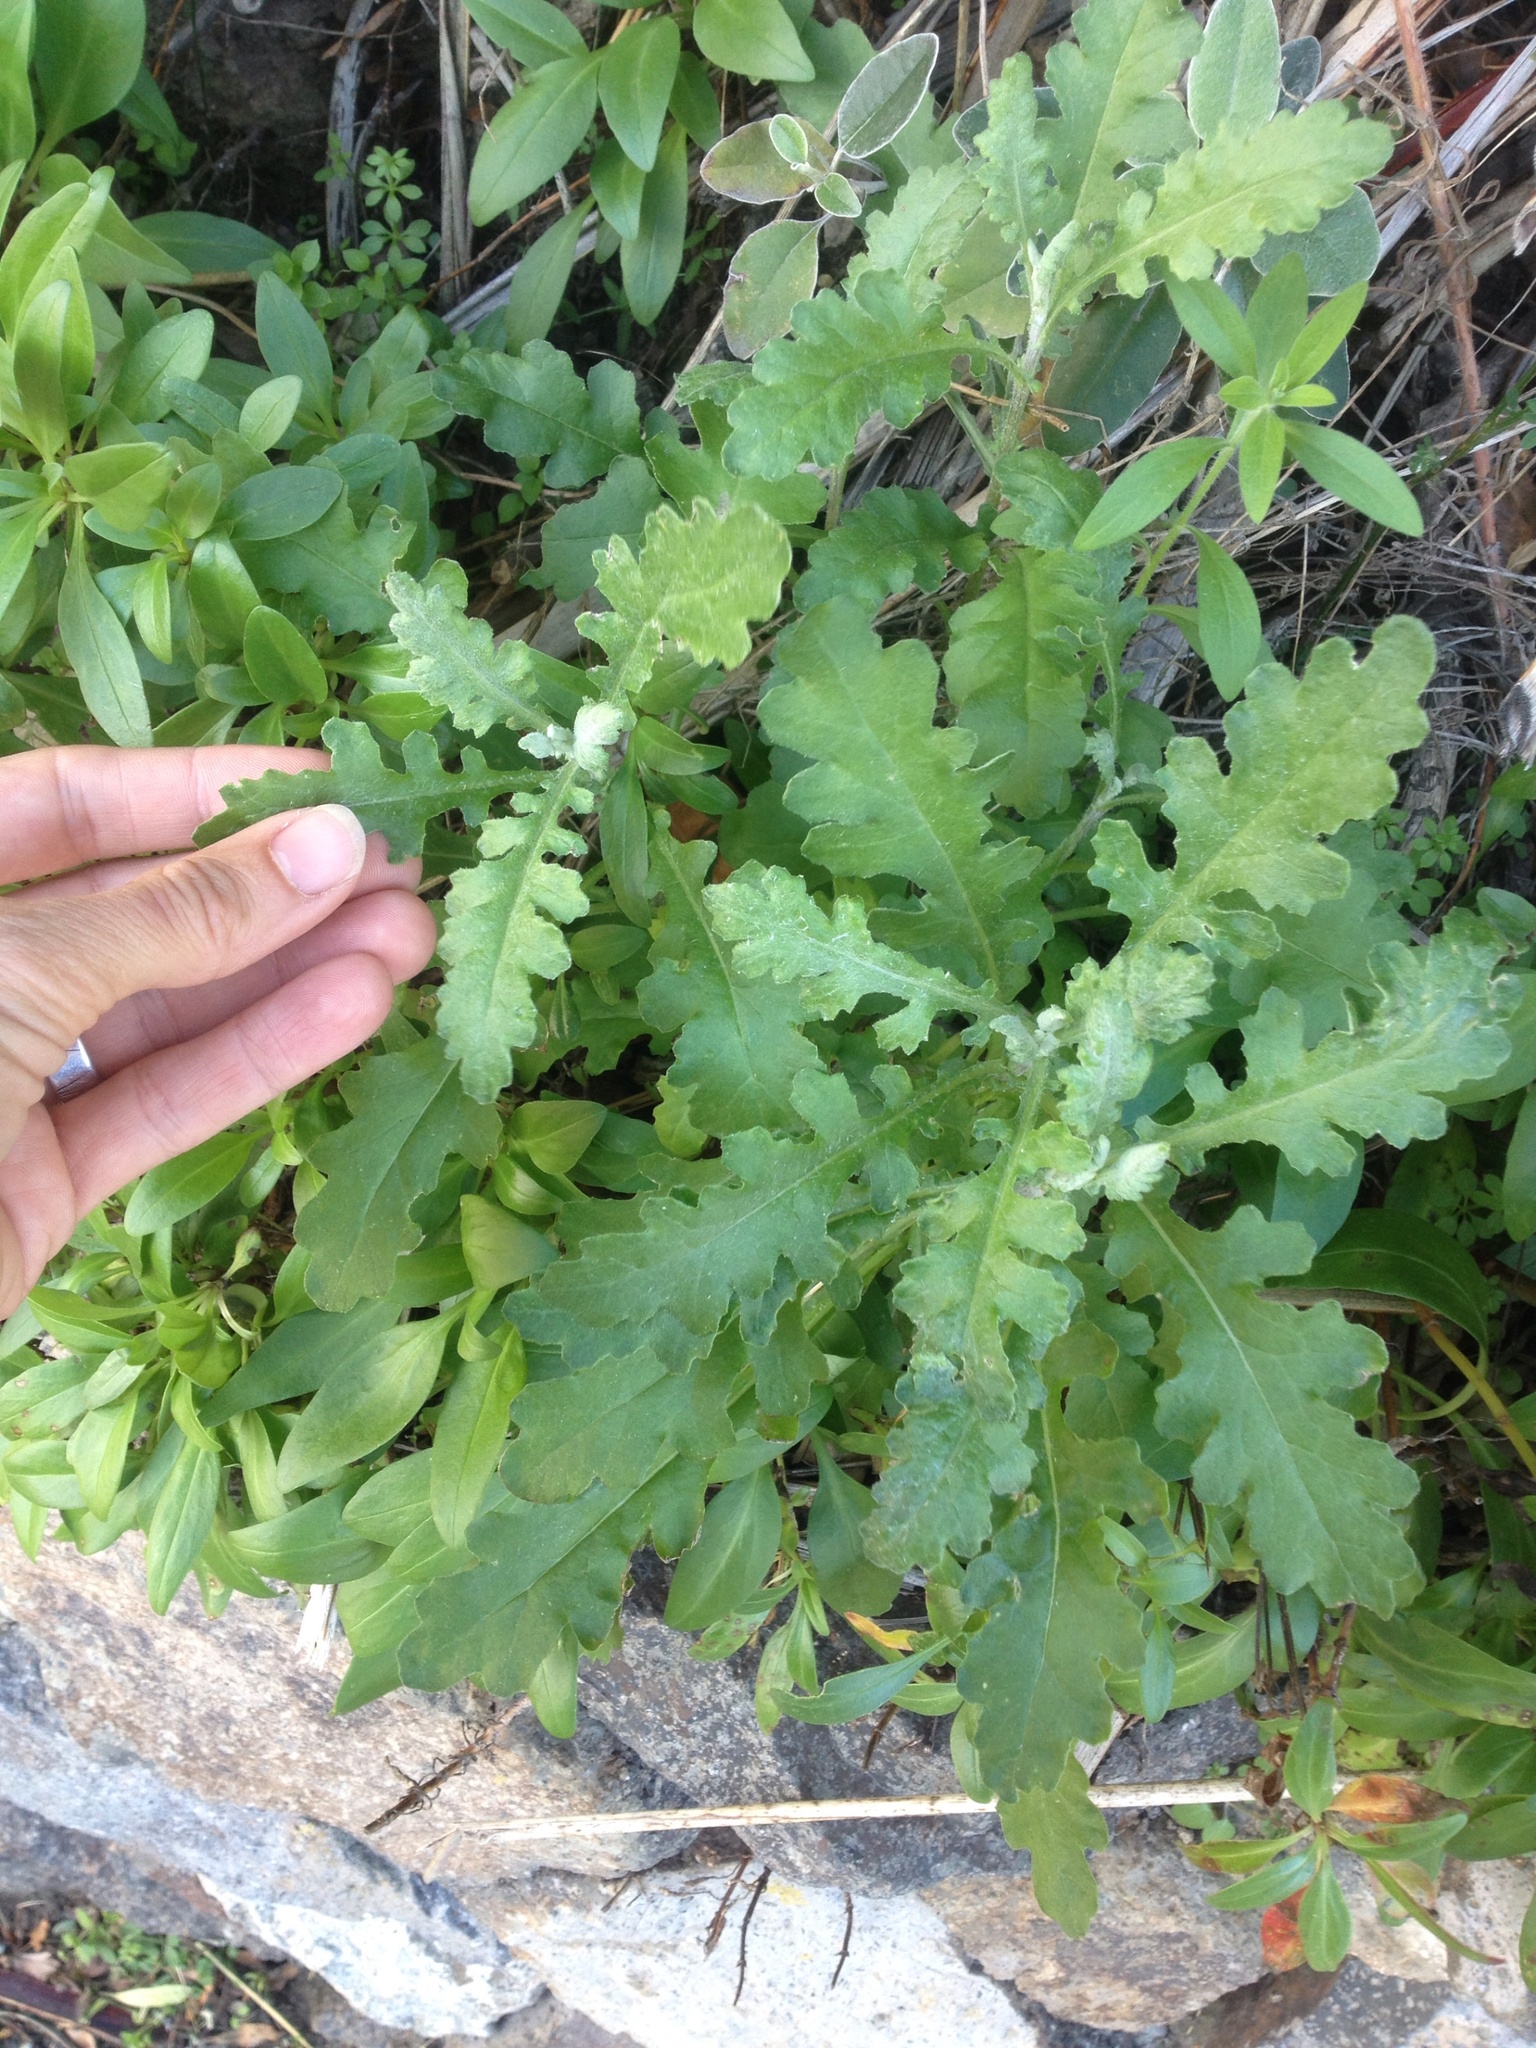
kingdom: Plantae
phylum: Tracheophyta
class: Magnoliopsida
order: Asterales
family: Asteraceae
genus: Senecio
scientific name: Senecio glomeratus
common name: Cutleaf burnweed
